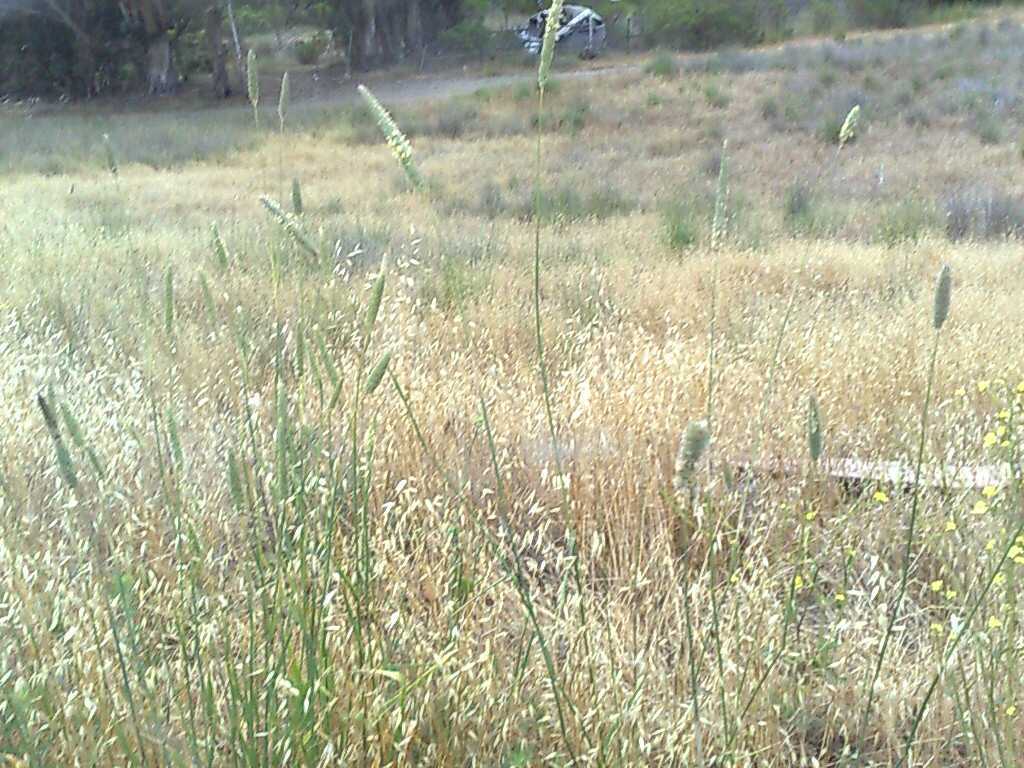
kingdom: Plantae
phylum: Tracheophyta
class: Liliopsida
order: Poales
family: Poaceae
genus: Avena
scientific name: Avena fatua
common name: Wild oat
